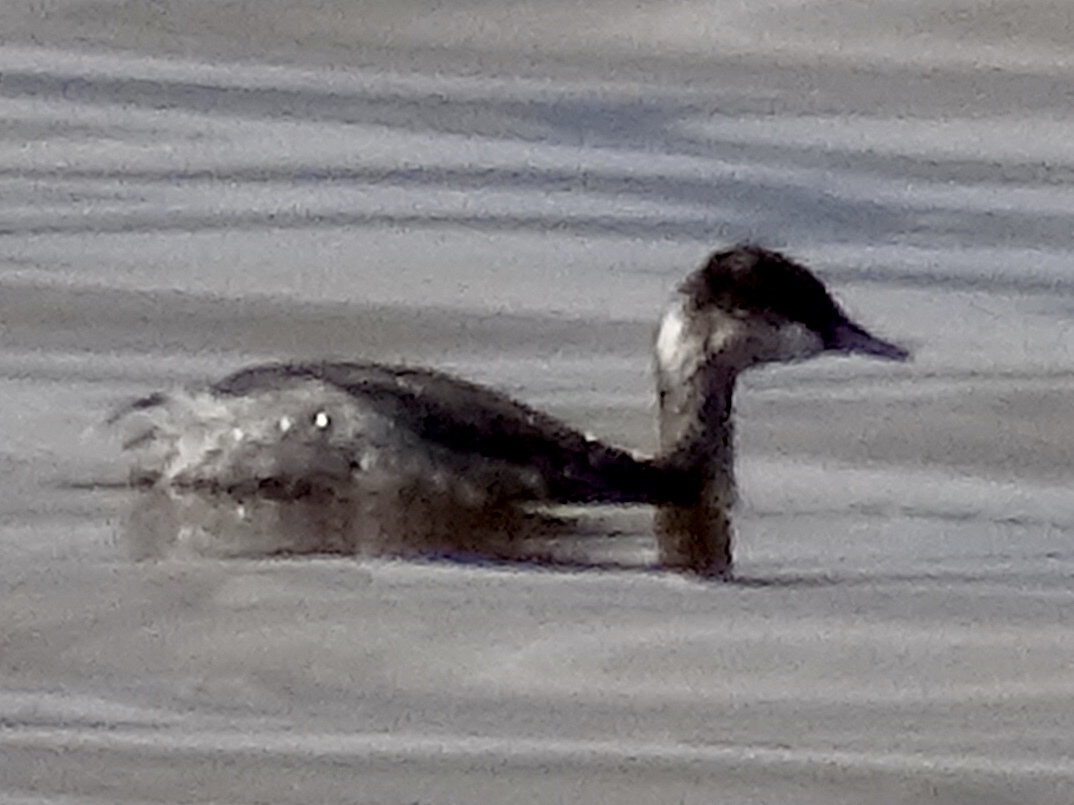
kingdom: Animalia
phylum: Chordata
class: Aves
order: Podicipediformes
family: Podicipedidae
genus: Podiceps
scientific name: Podiceps nigricollis
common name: Black-necked grebe
